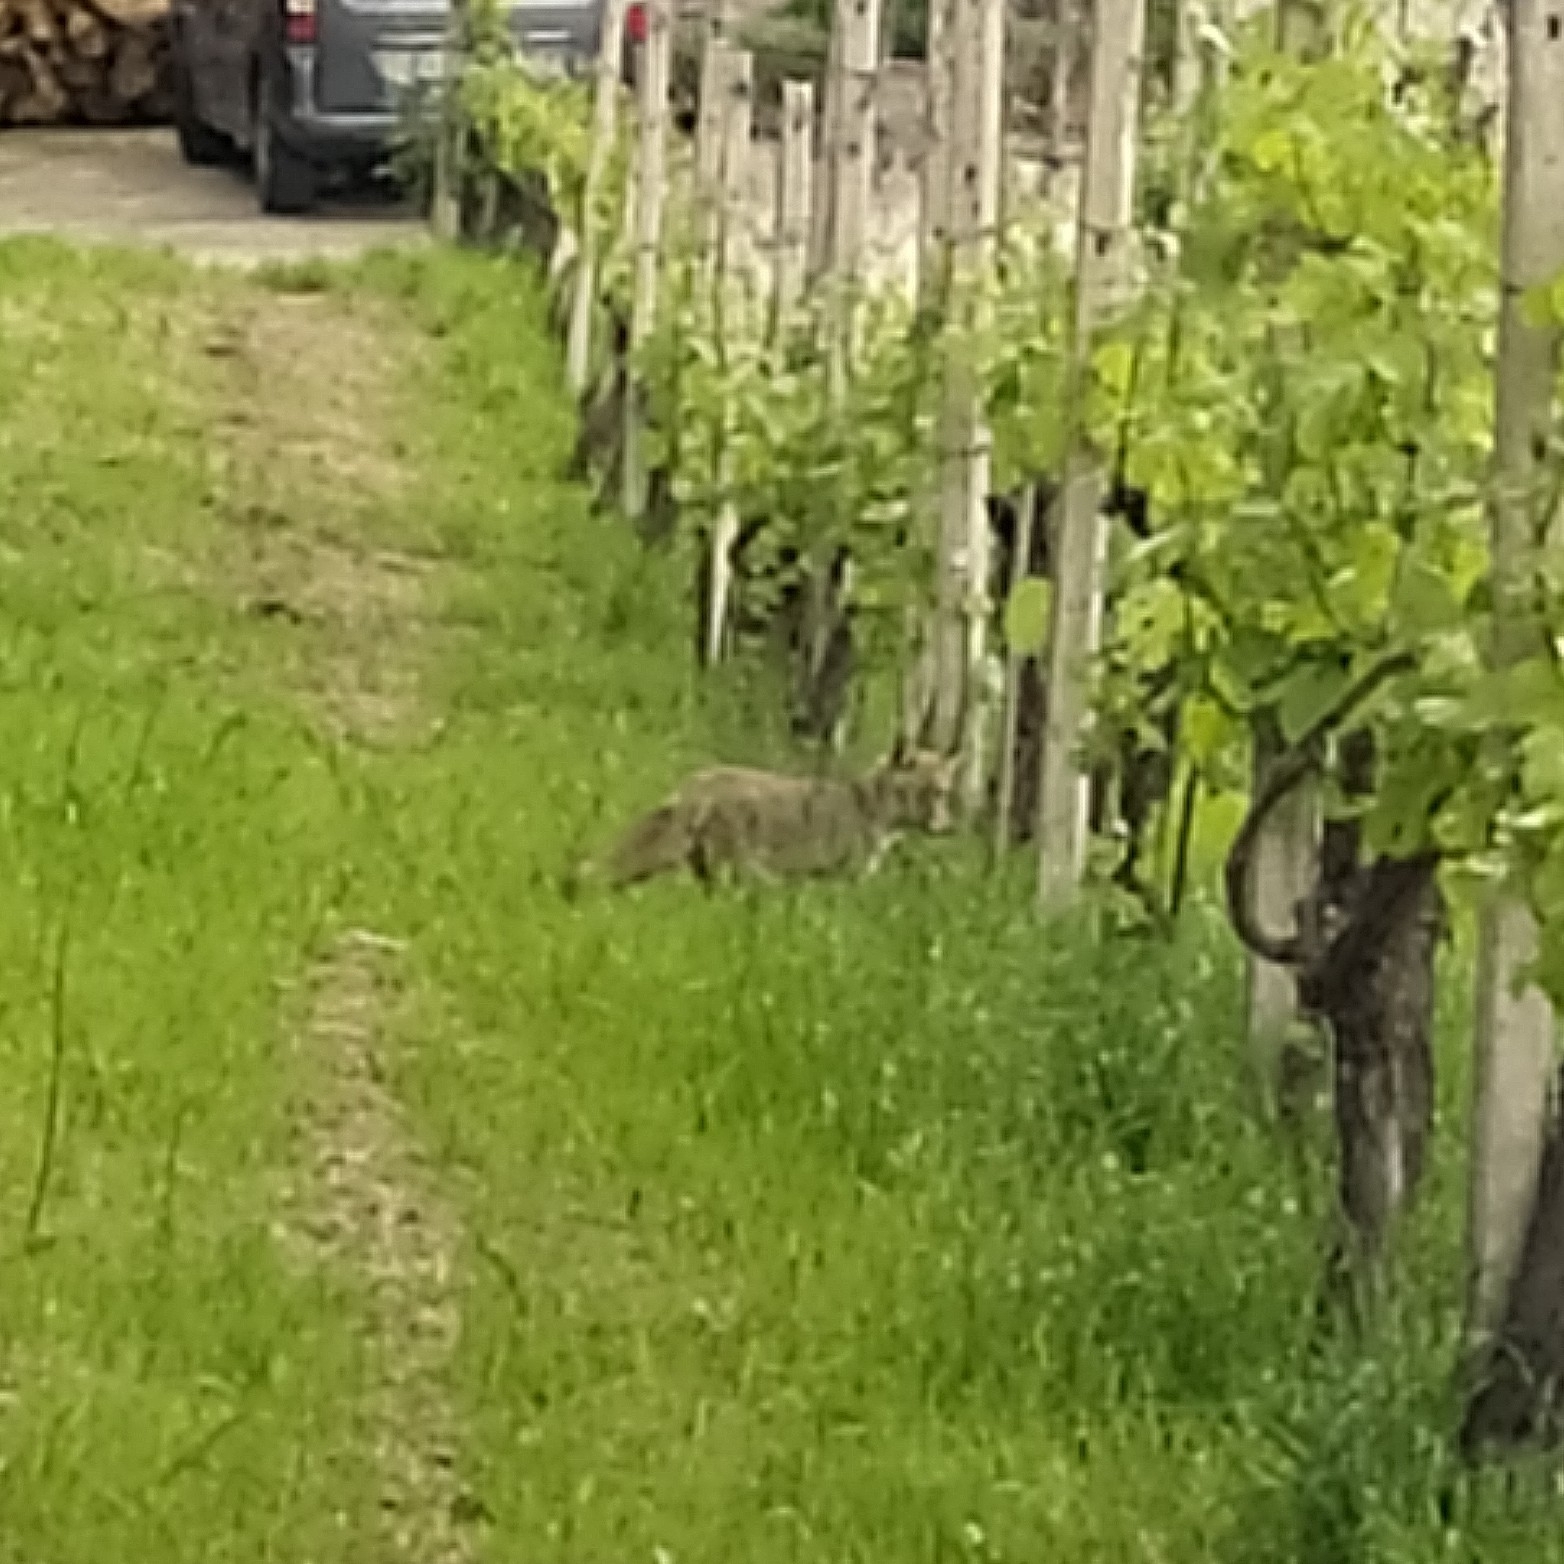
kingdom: Animalia
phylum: Chordata
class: Mammalia
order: Carnivora
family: Canidae
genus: Vulpes
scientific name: Vulpes vulpes
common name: Red fox
